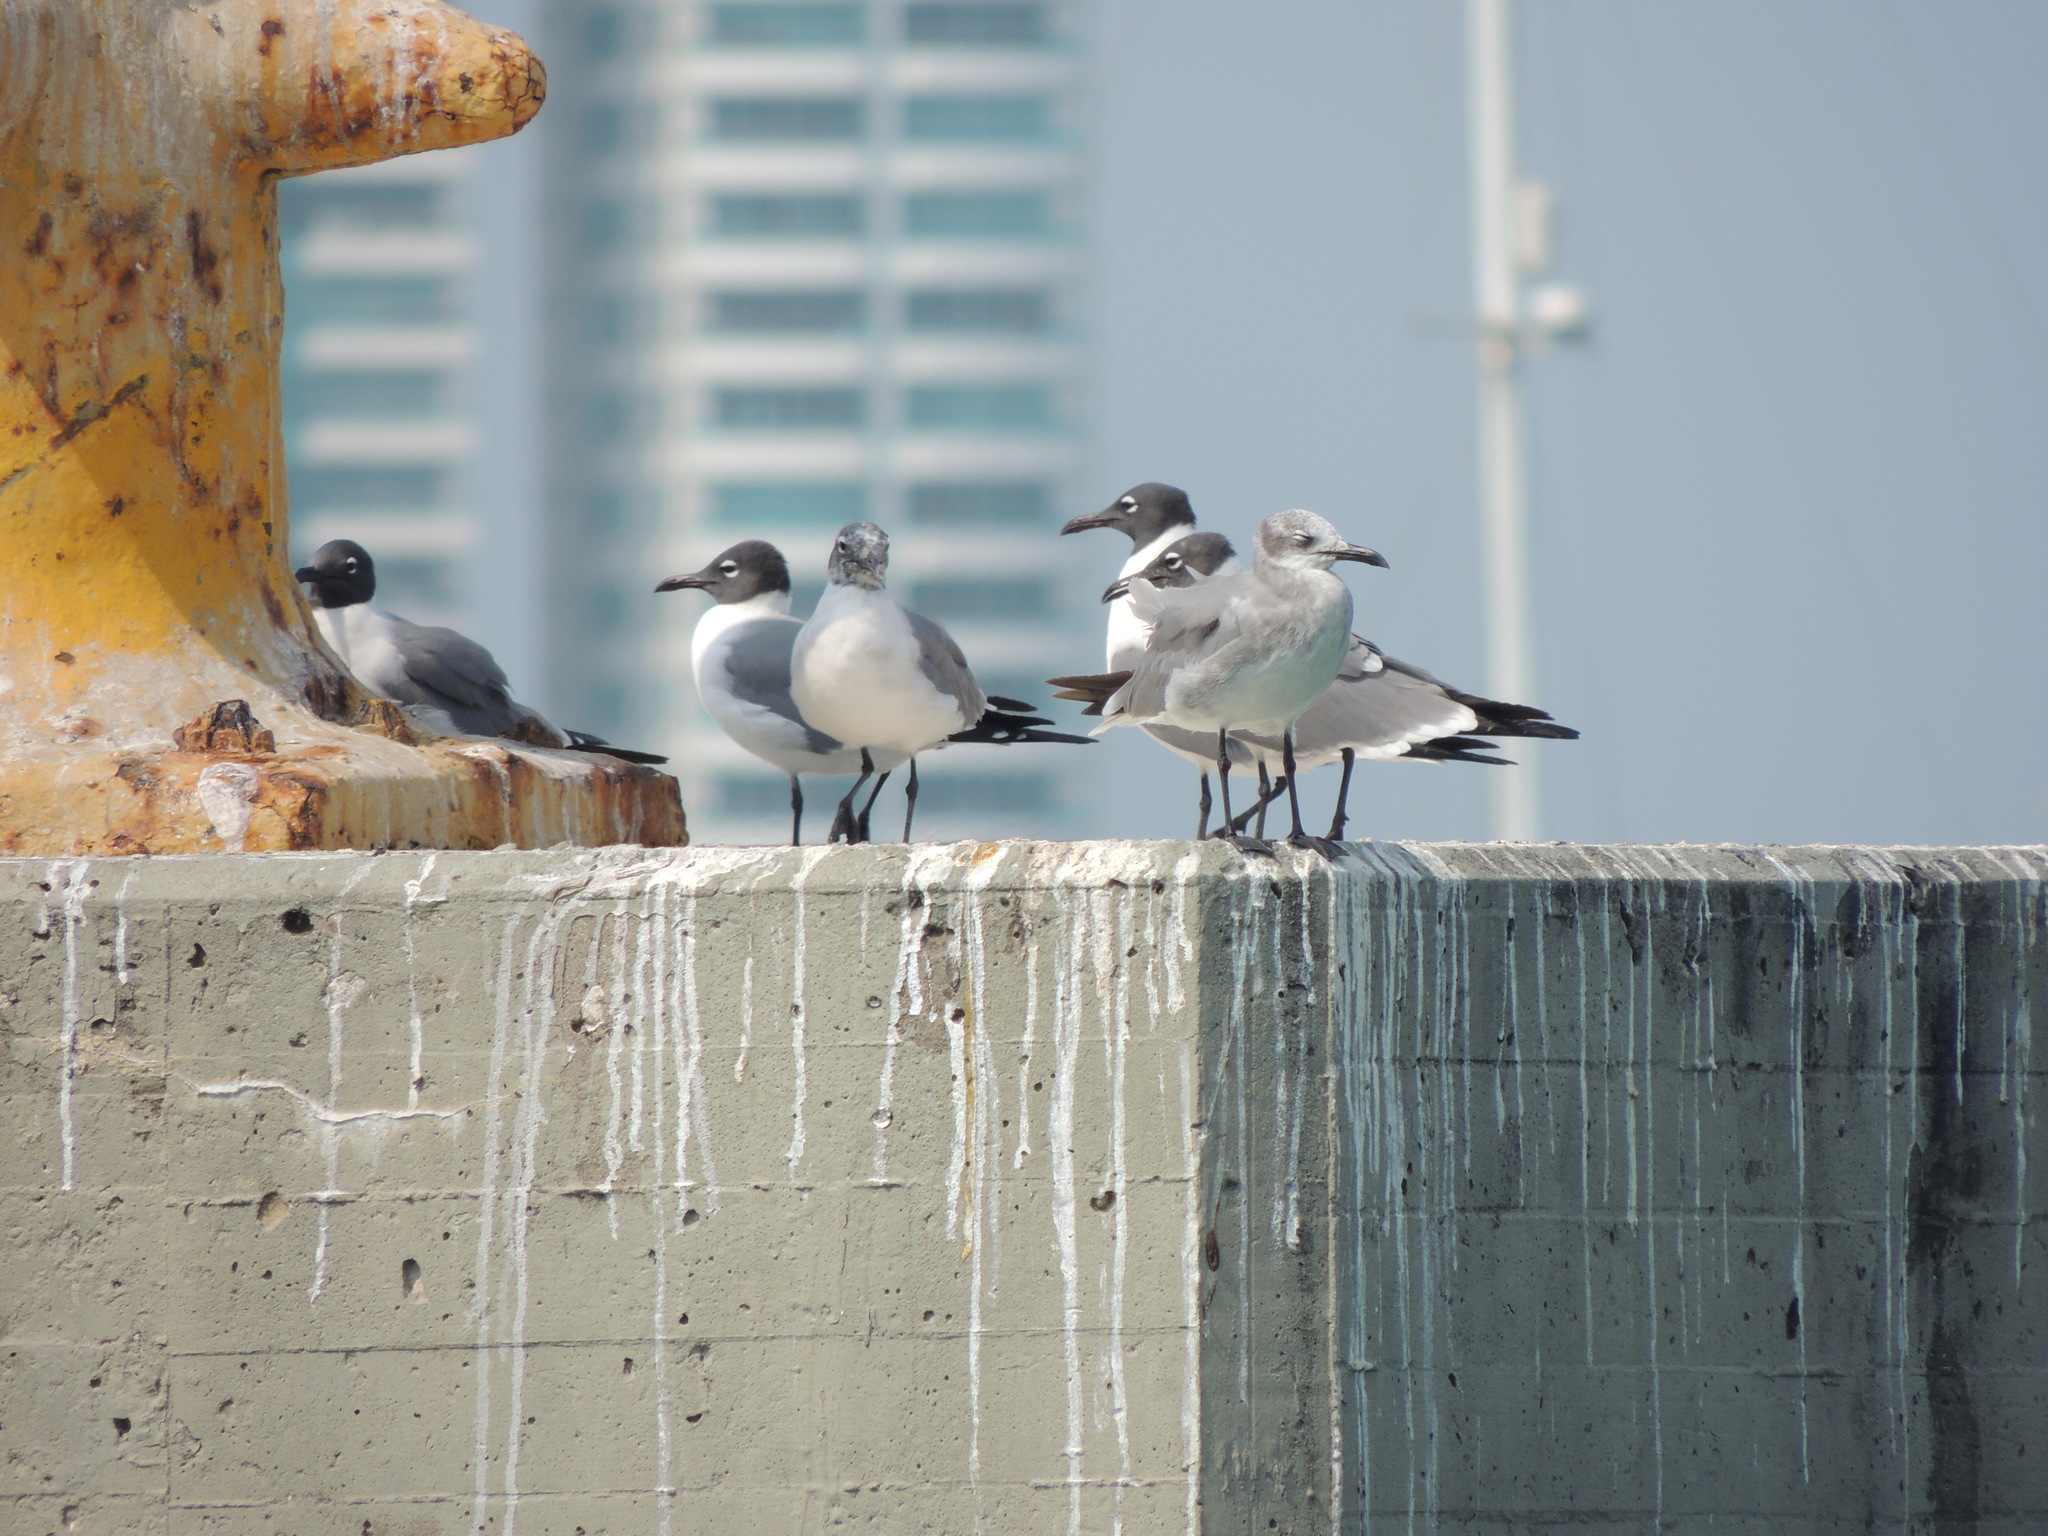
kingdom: Animalia
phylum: Chordata
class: Aves
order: Charadriiformes
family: Laridae
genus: Leucophaeus
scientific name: Leucophaeus atricilla
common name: Laughing gull
